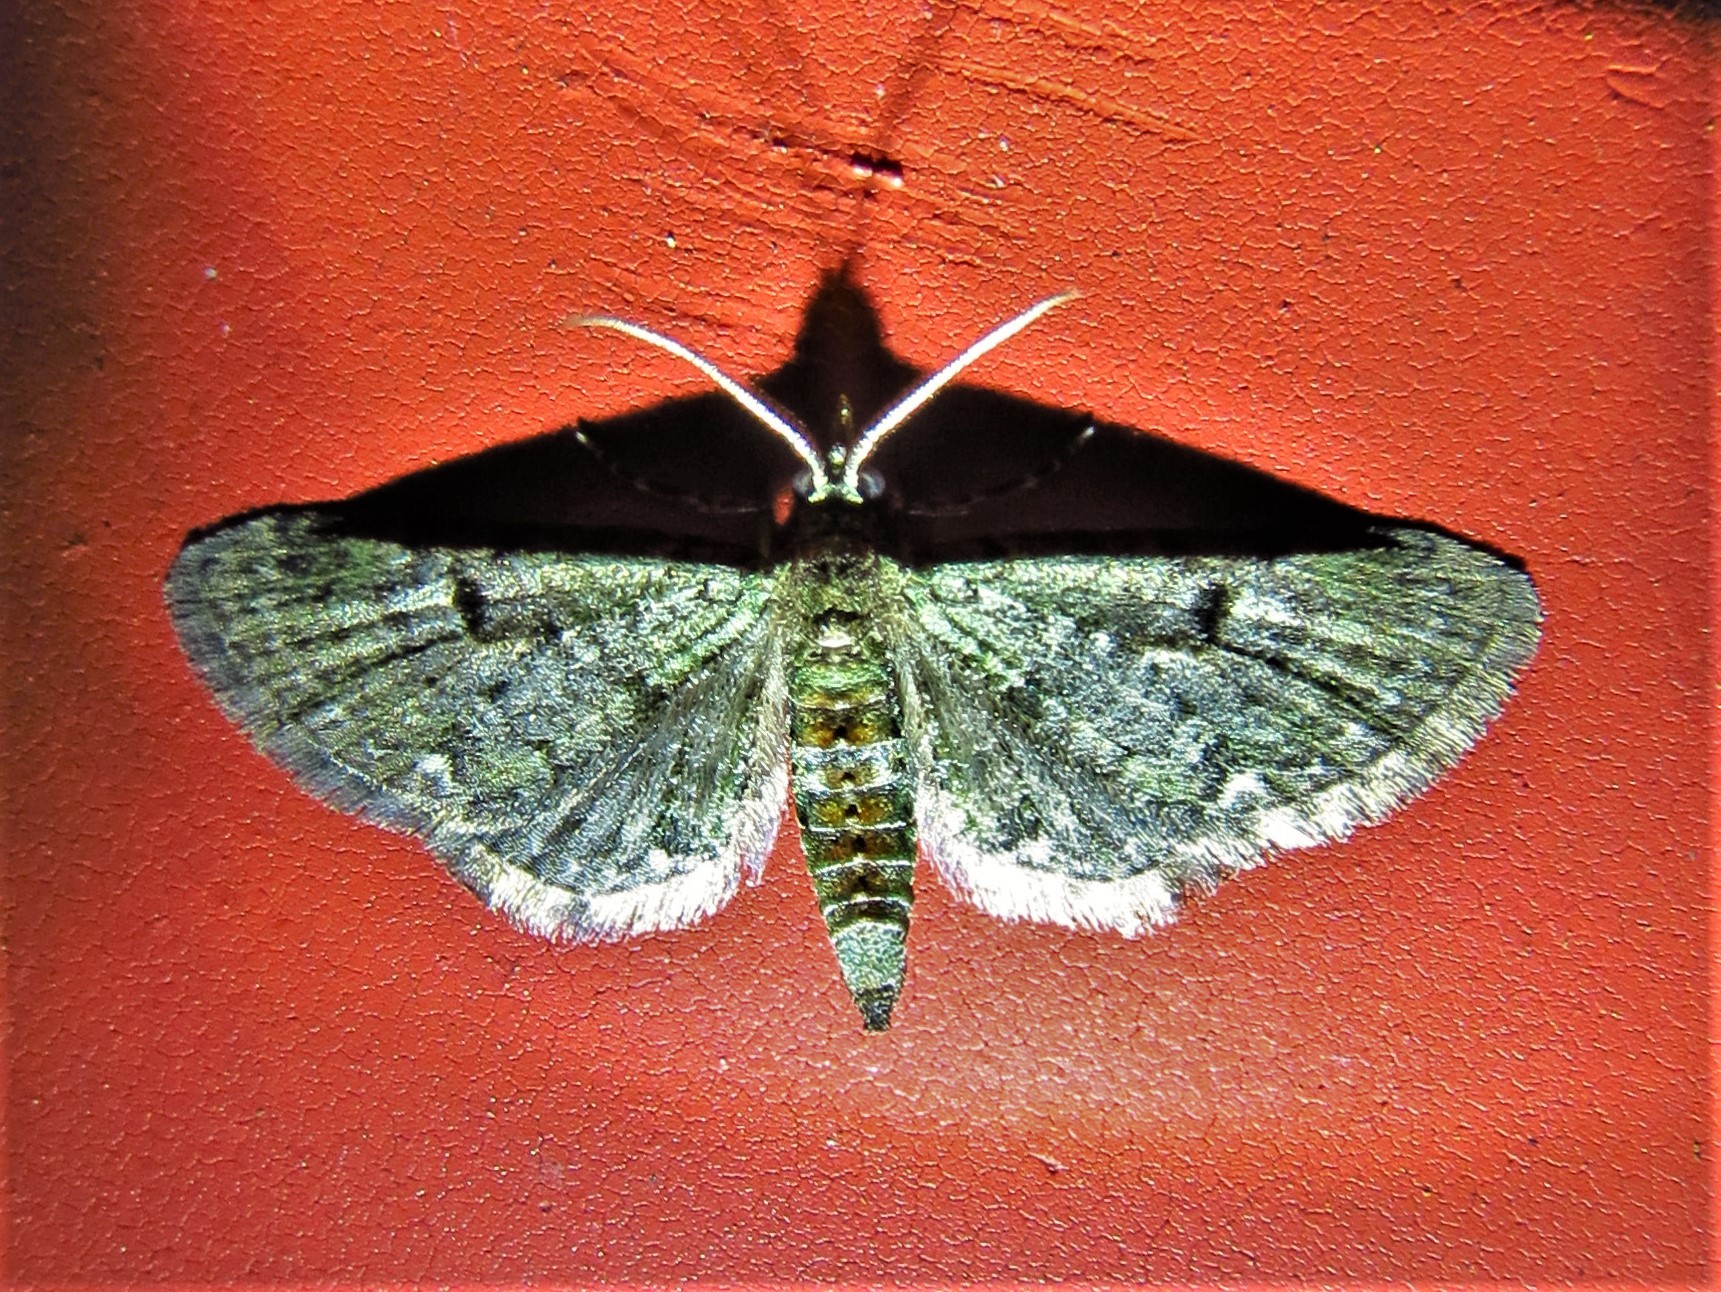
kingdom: Animalia
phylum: Arthropoda
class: Insecta
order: Lepidoptera
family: Geometridae
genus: Eupithecia
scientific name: Eupithecia miserulata
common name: Common eupithecia
